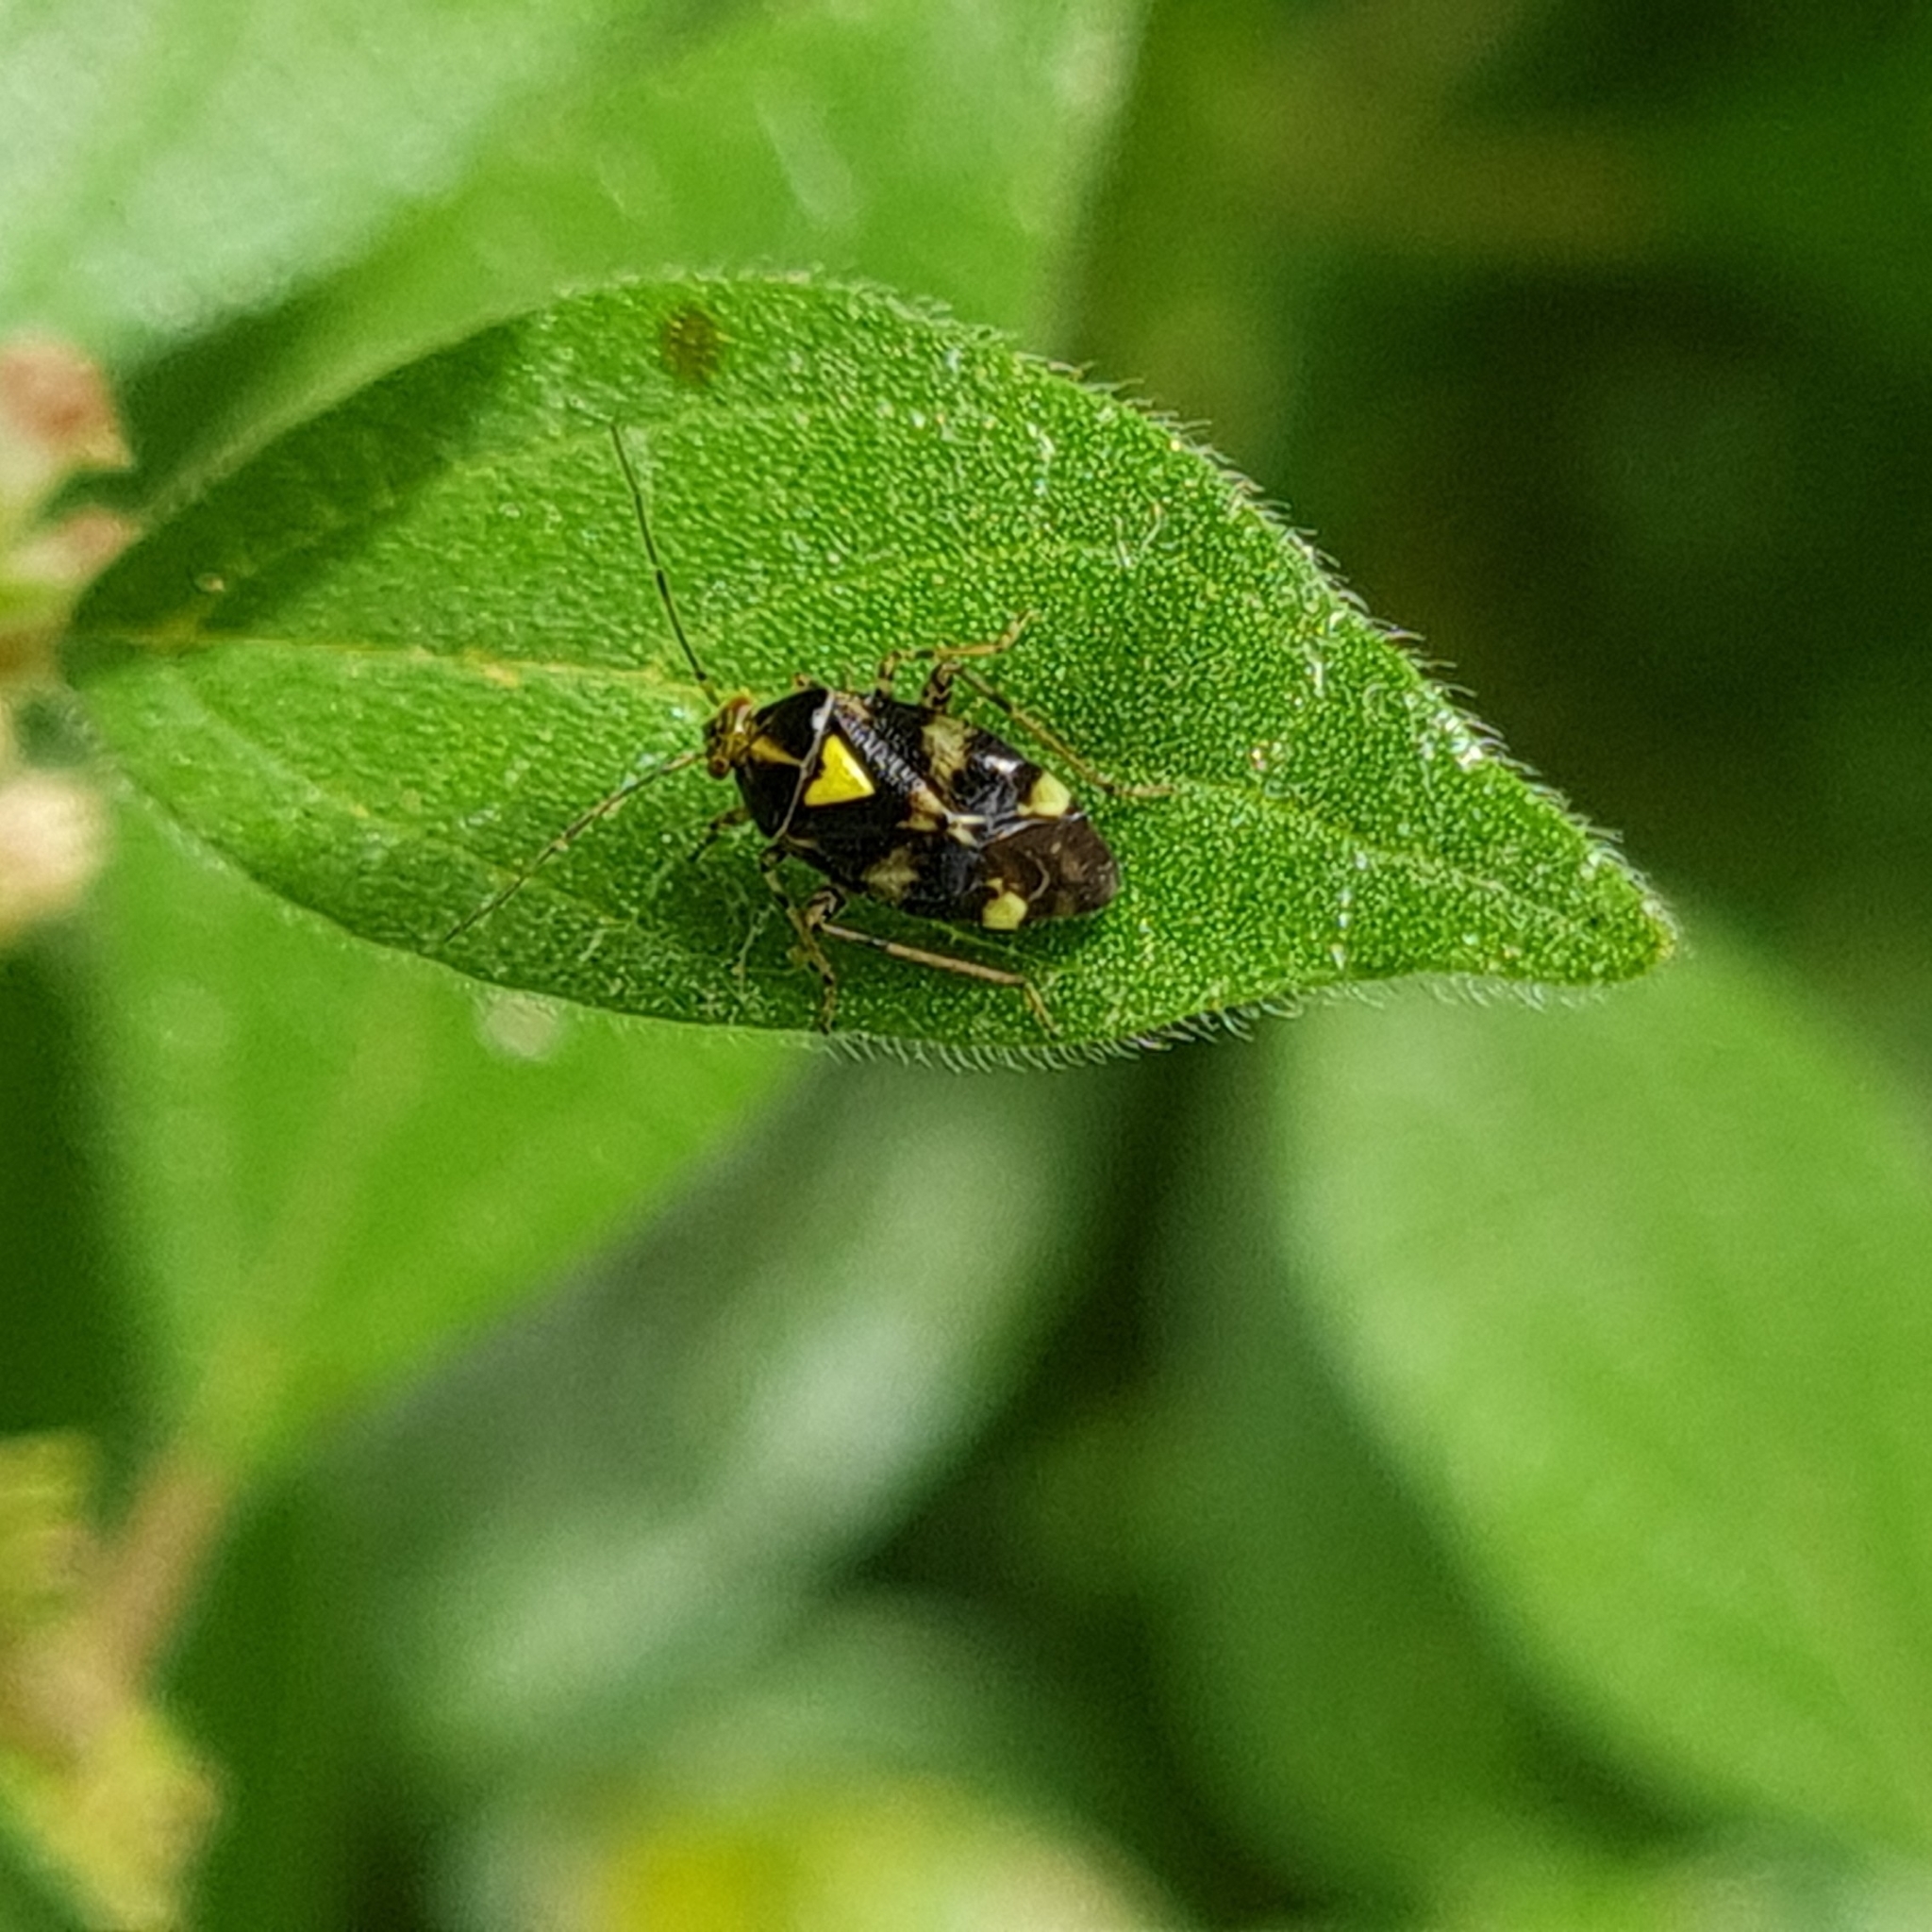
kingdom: Animalia
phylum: Arthropoda
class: Insecta
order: Hemiptera
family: Miridae
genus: Liocoris
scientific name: Liocoris tripustulatus
